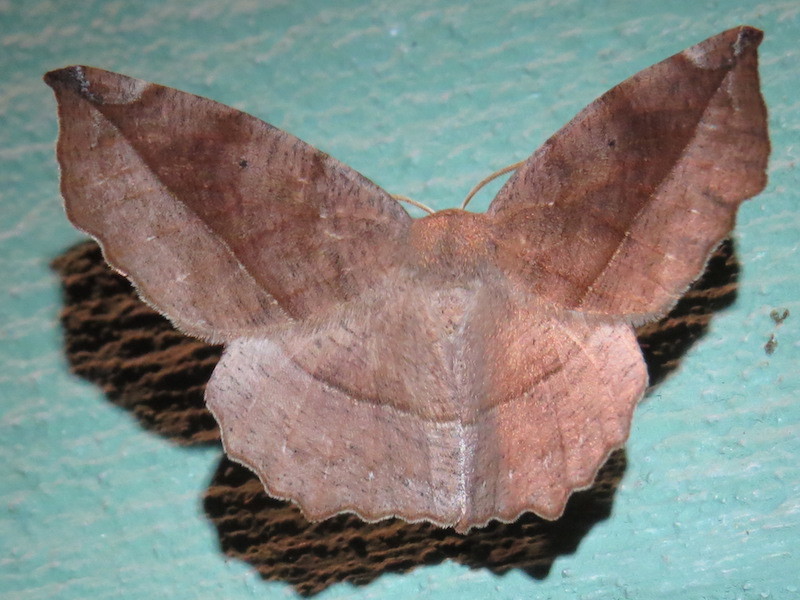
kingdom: Animalia
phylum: Arthropoda
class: Insecta
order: Lepidoptera
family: Geometridae
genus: Eutrapela
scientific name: Eutrapela clemataria
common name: Curved-toothed geometer
